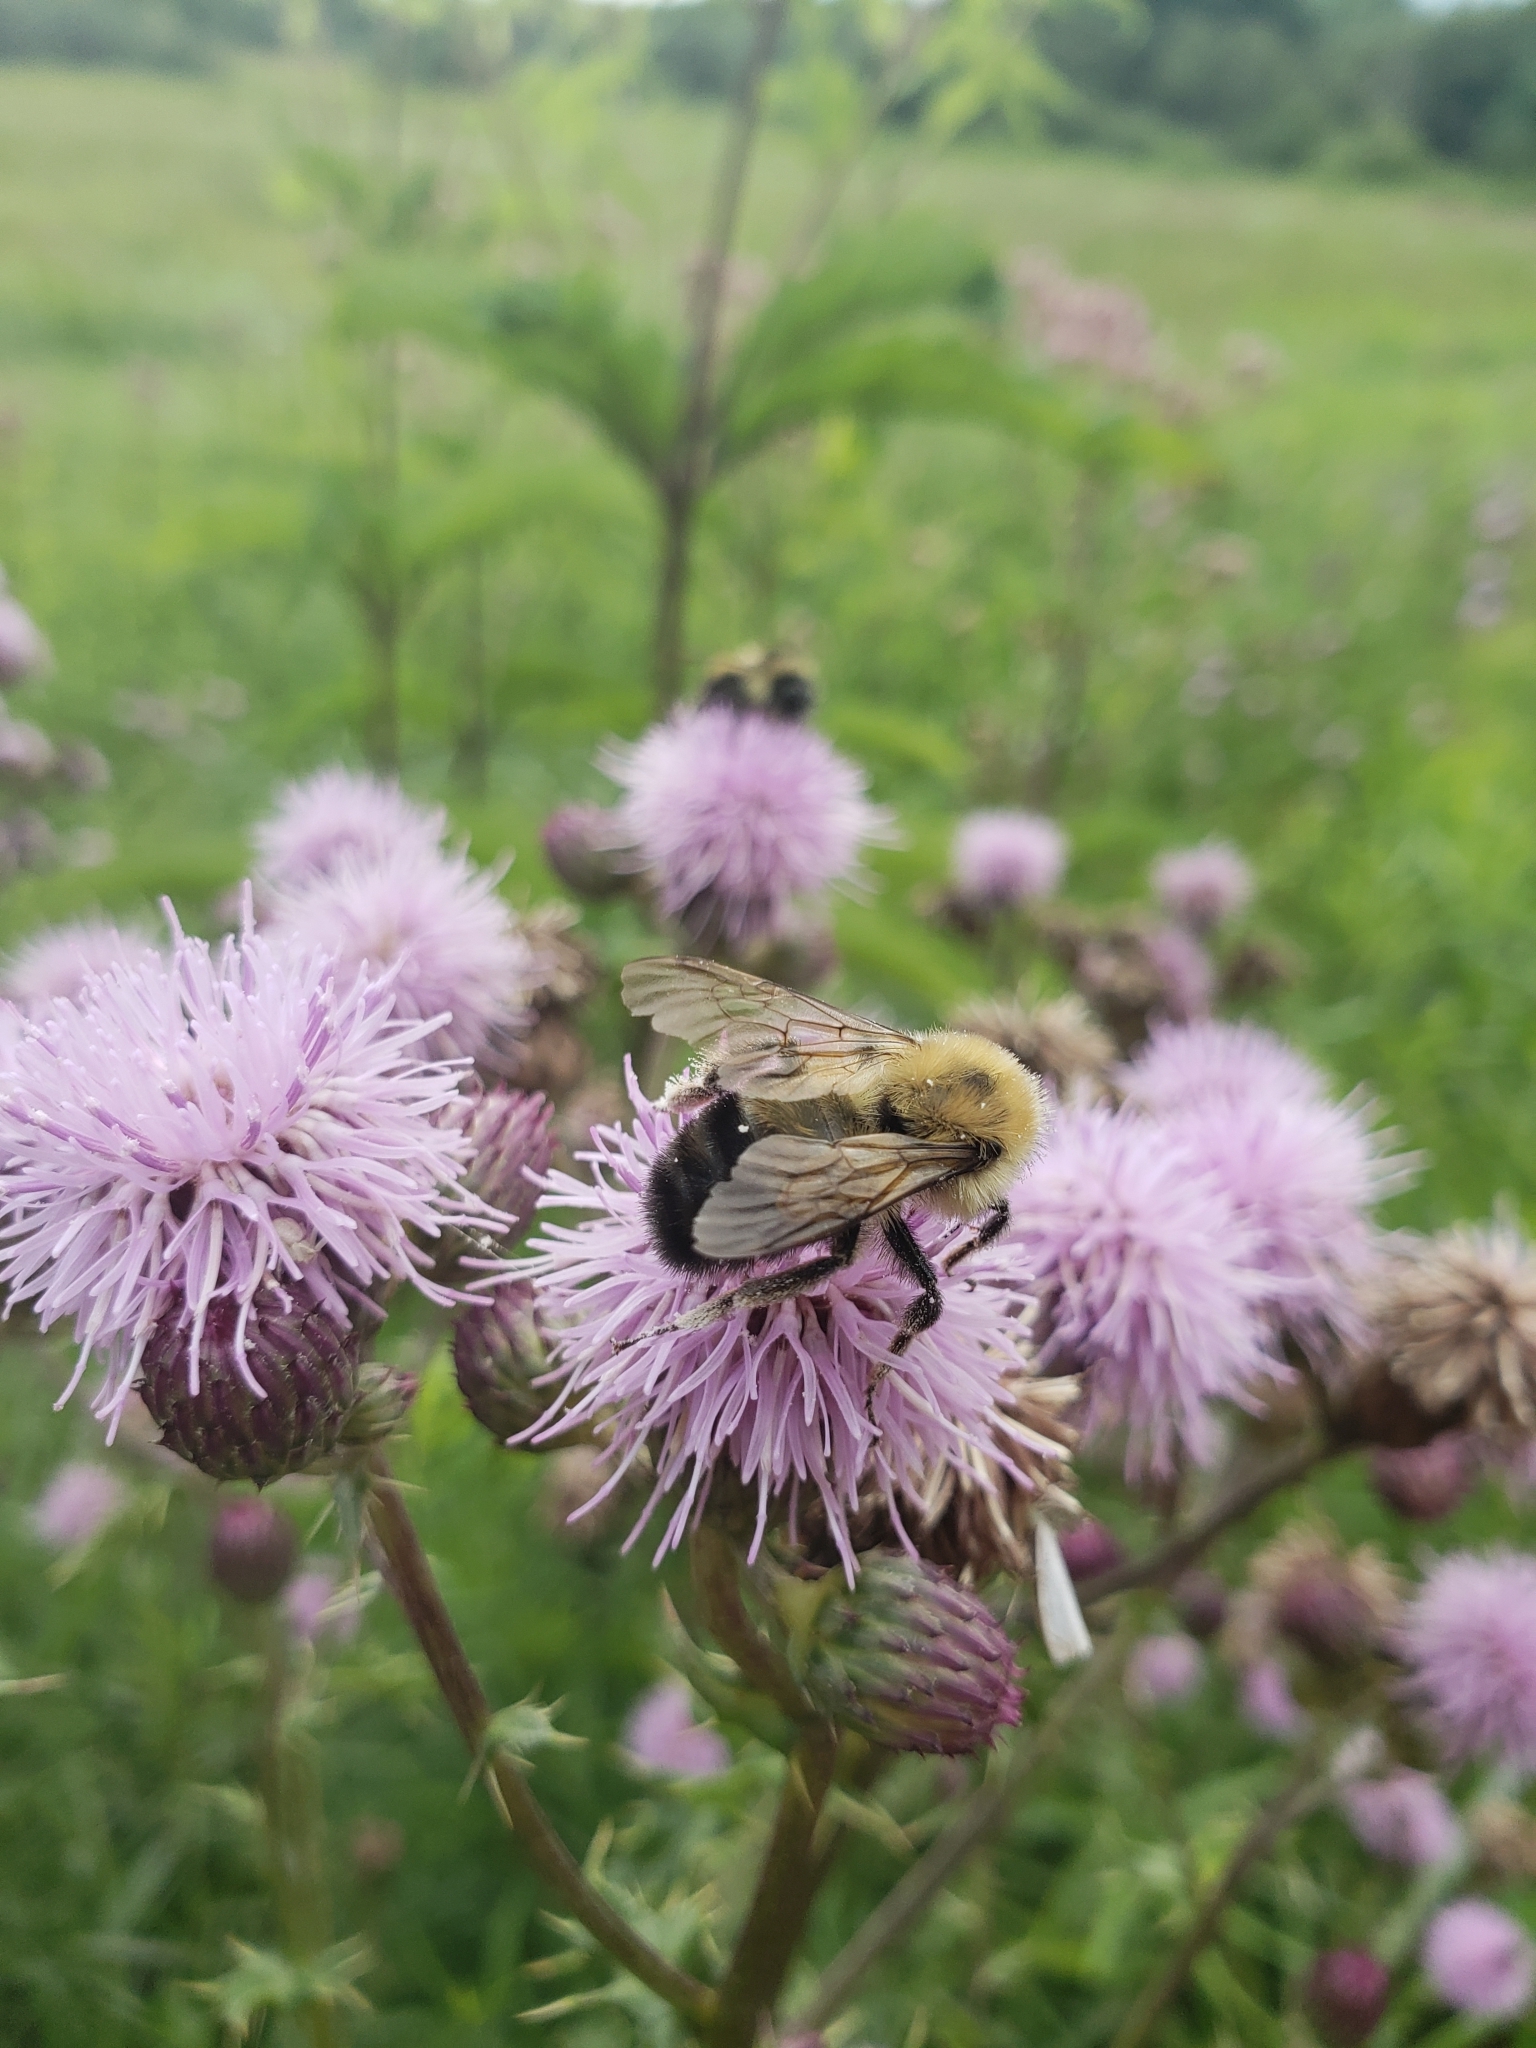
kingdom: Animalia
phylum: Arthropoda
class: Insecta
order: Hymenoptera
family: Apidae
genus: Bombus
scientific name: Bombus bimaculatus
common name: Two-spotted bumble bee
